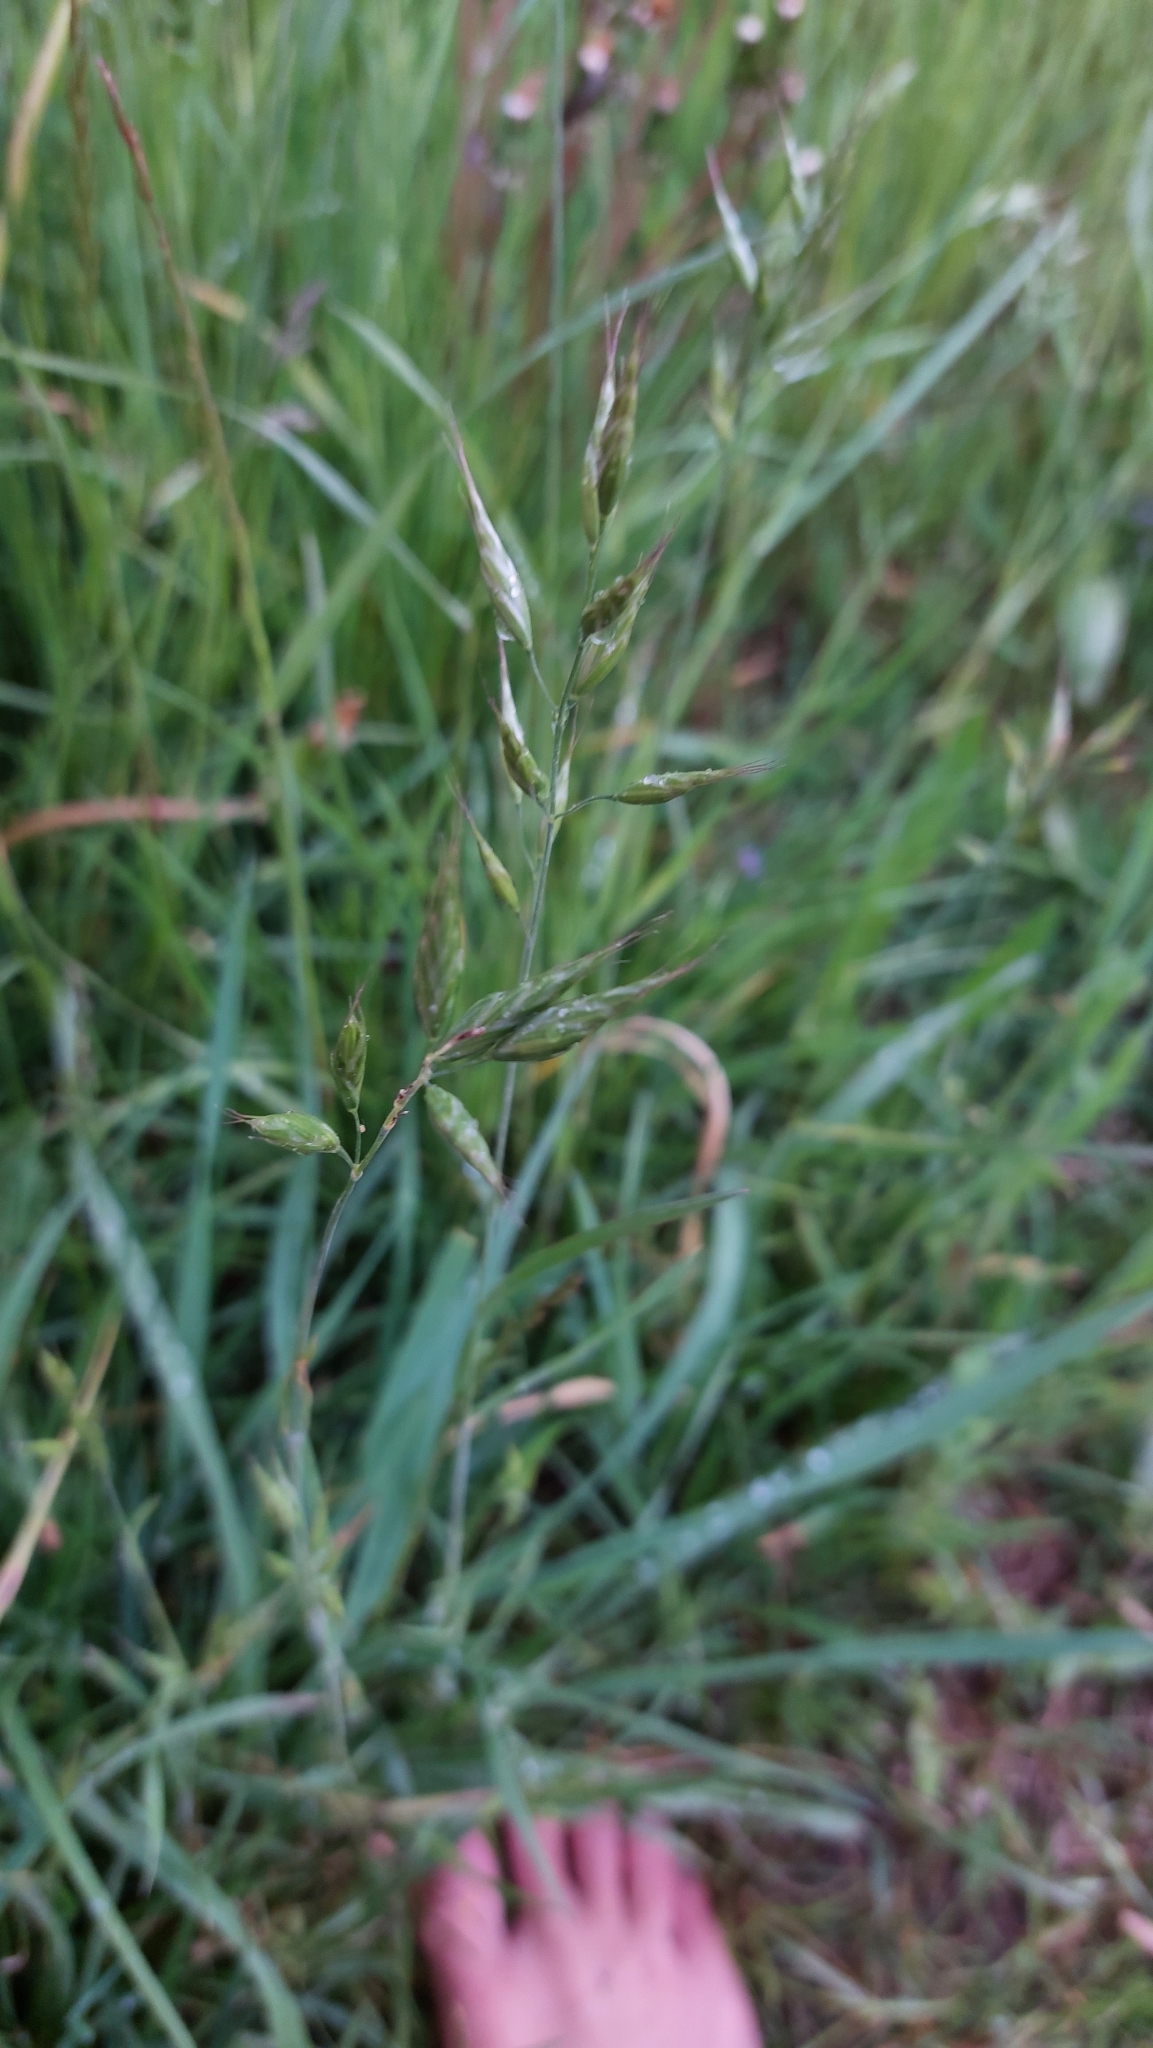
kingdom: Plantae
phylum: Tracheophyta
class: Liliopsida
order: Poales
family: Poaceae
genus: Bromus
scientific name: Bromus hordeaceus
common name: Soft brome
